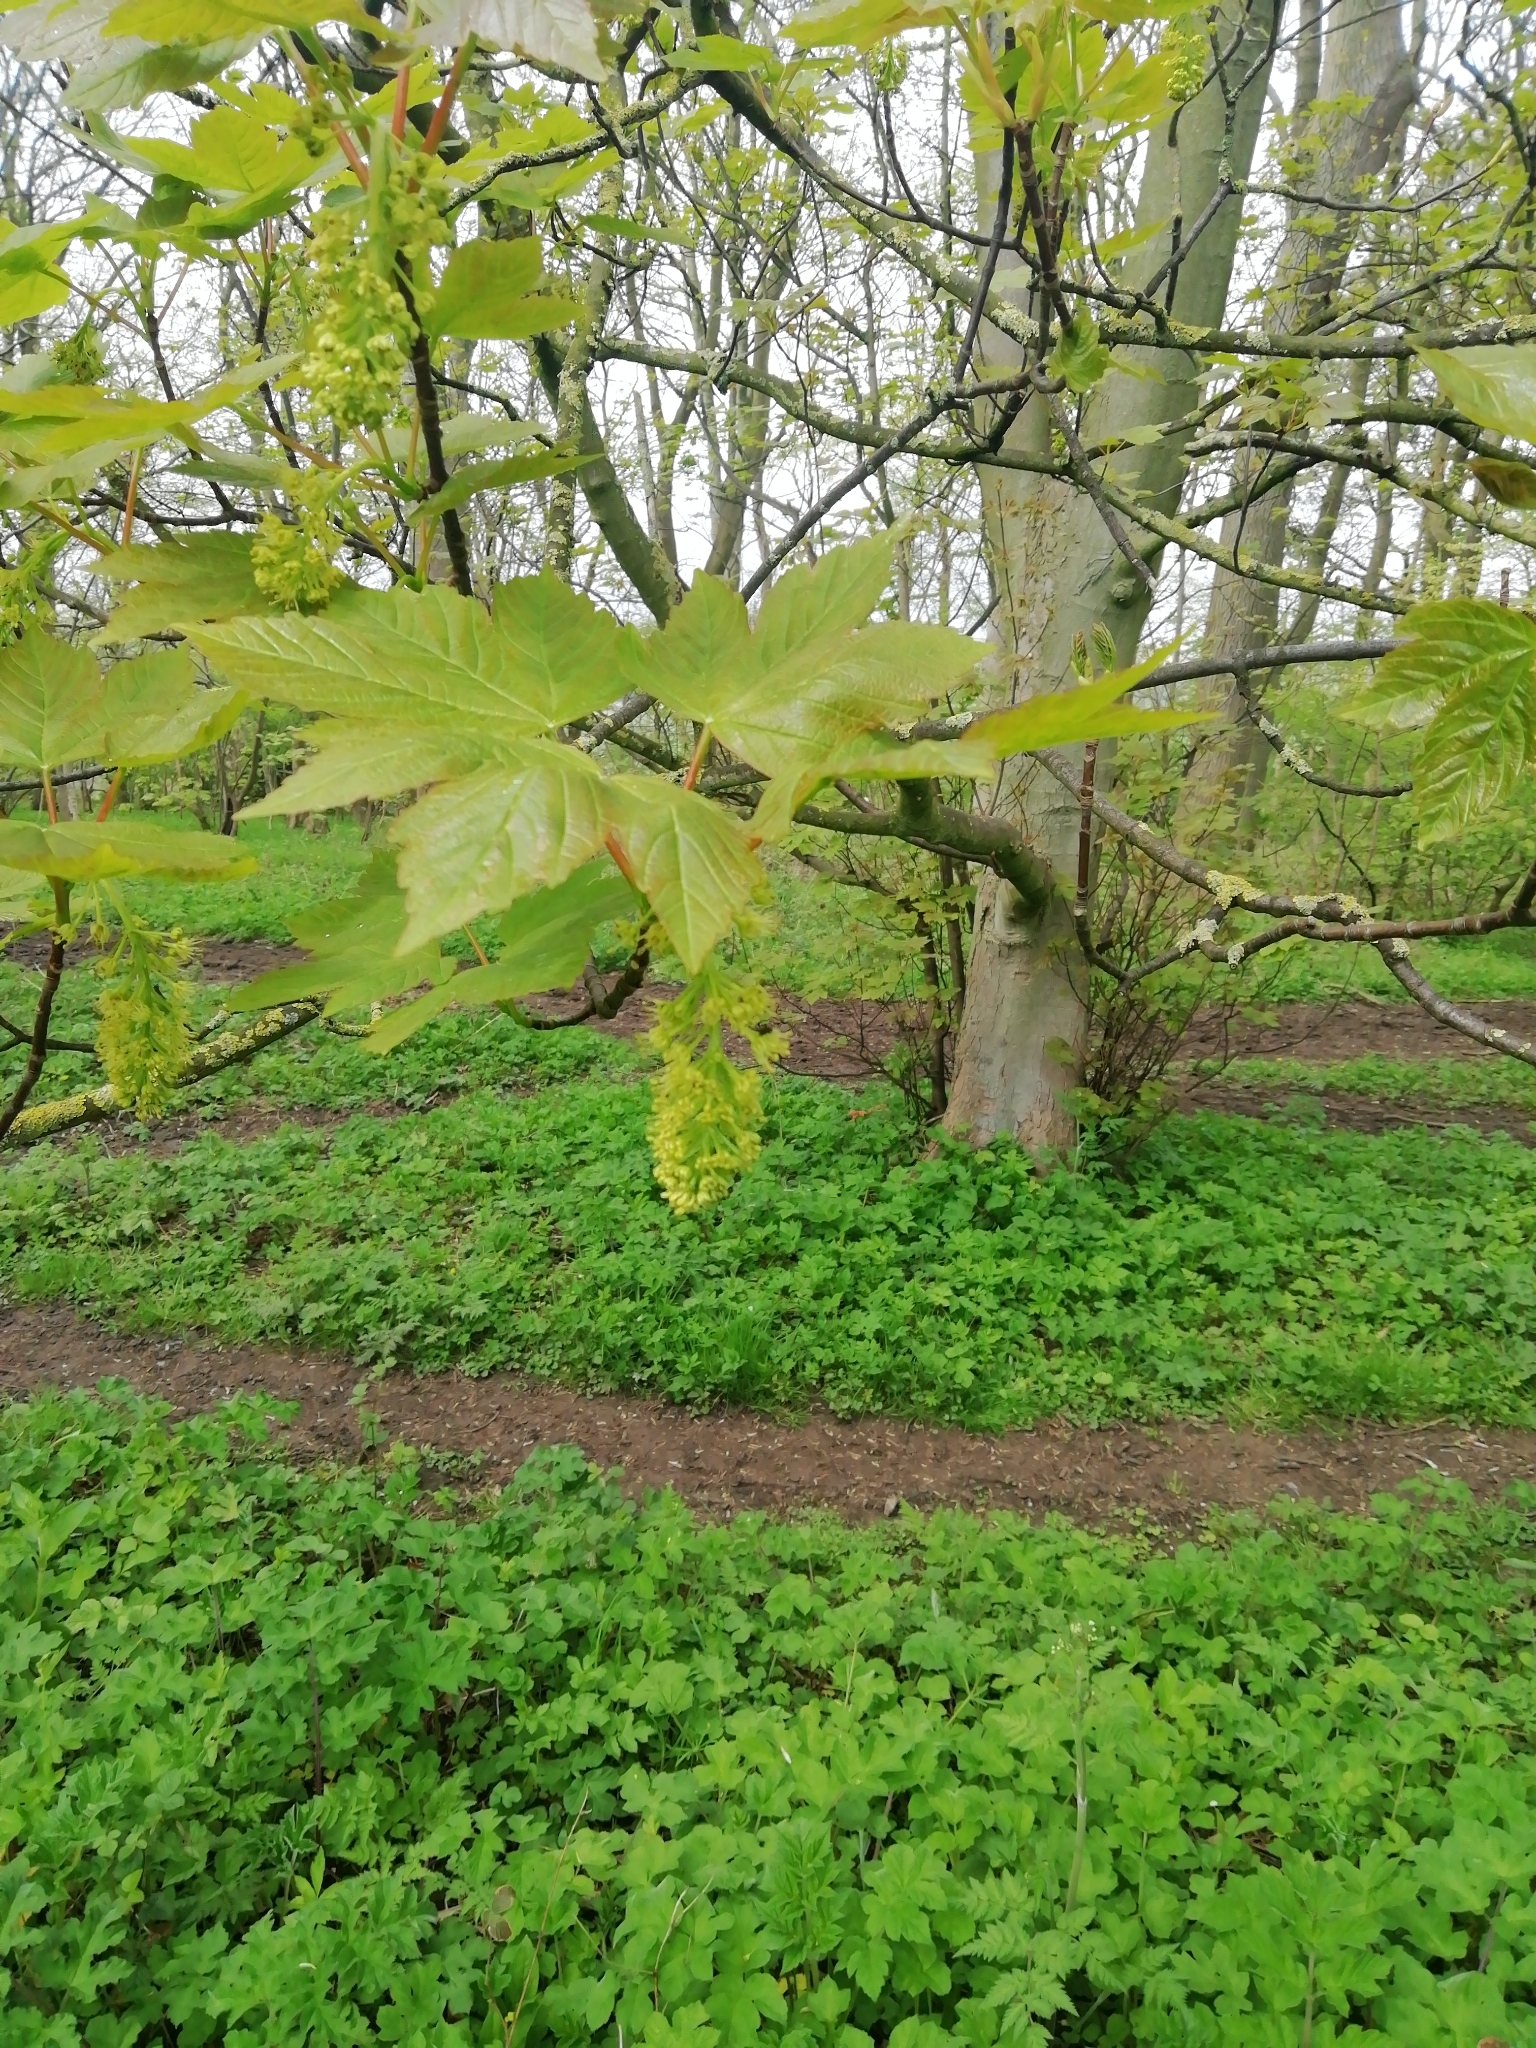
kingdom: Plantae
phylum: Tracheophyta
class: Magnoliopsida
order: Sapindales
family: Sapindaceae
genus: Acer
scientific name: Acer pseudoplatanus
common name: Sycamore
